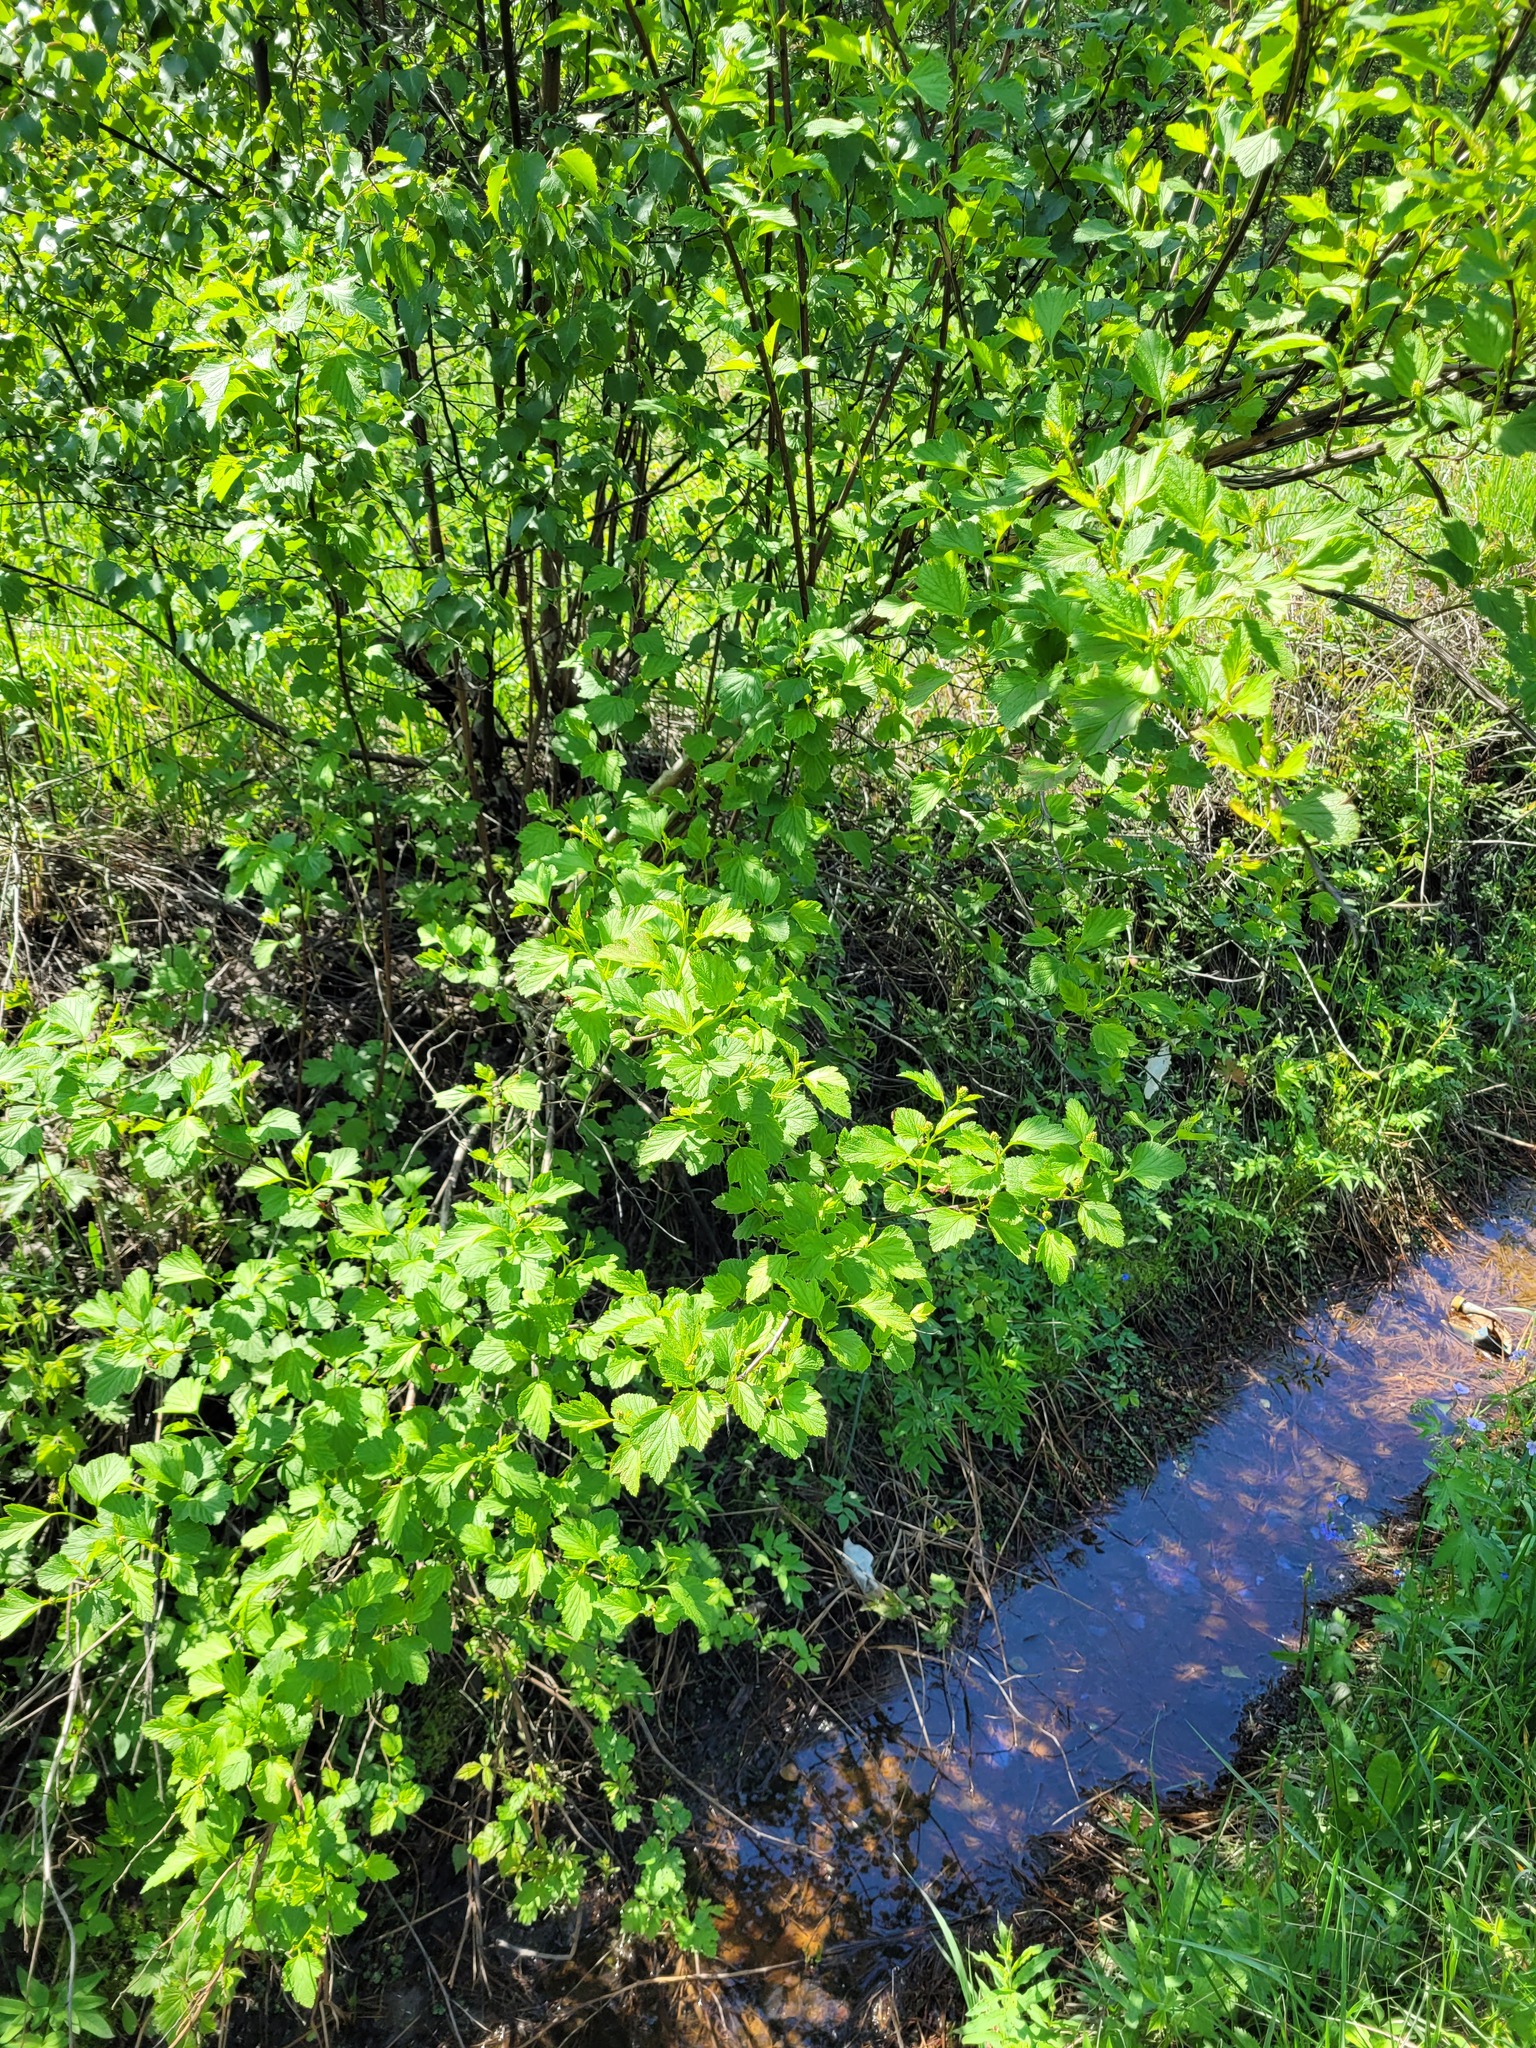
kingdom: Plantae
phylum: Tracheophyta
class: Magnoliopsida
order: Rosales
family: Rosaceae
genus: Physocarpus
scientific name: Physocarpus opulifolius
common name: Ninebark
